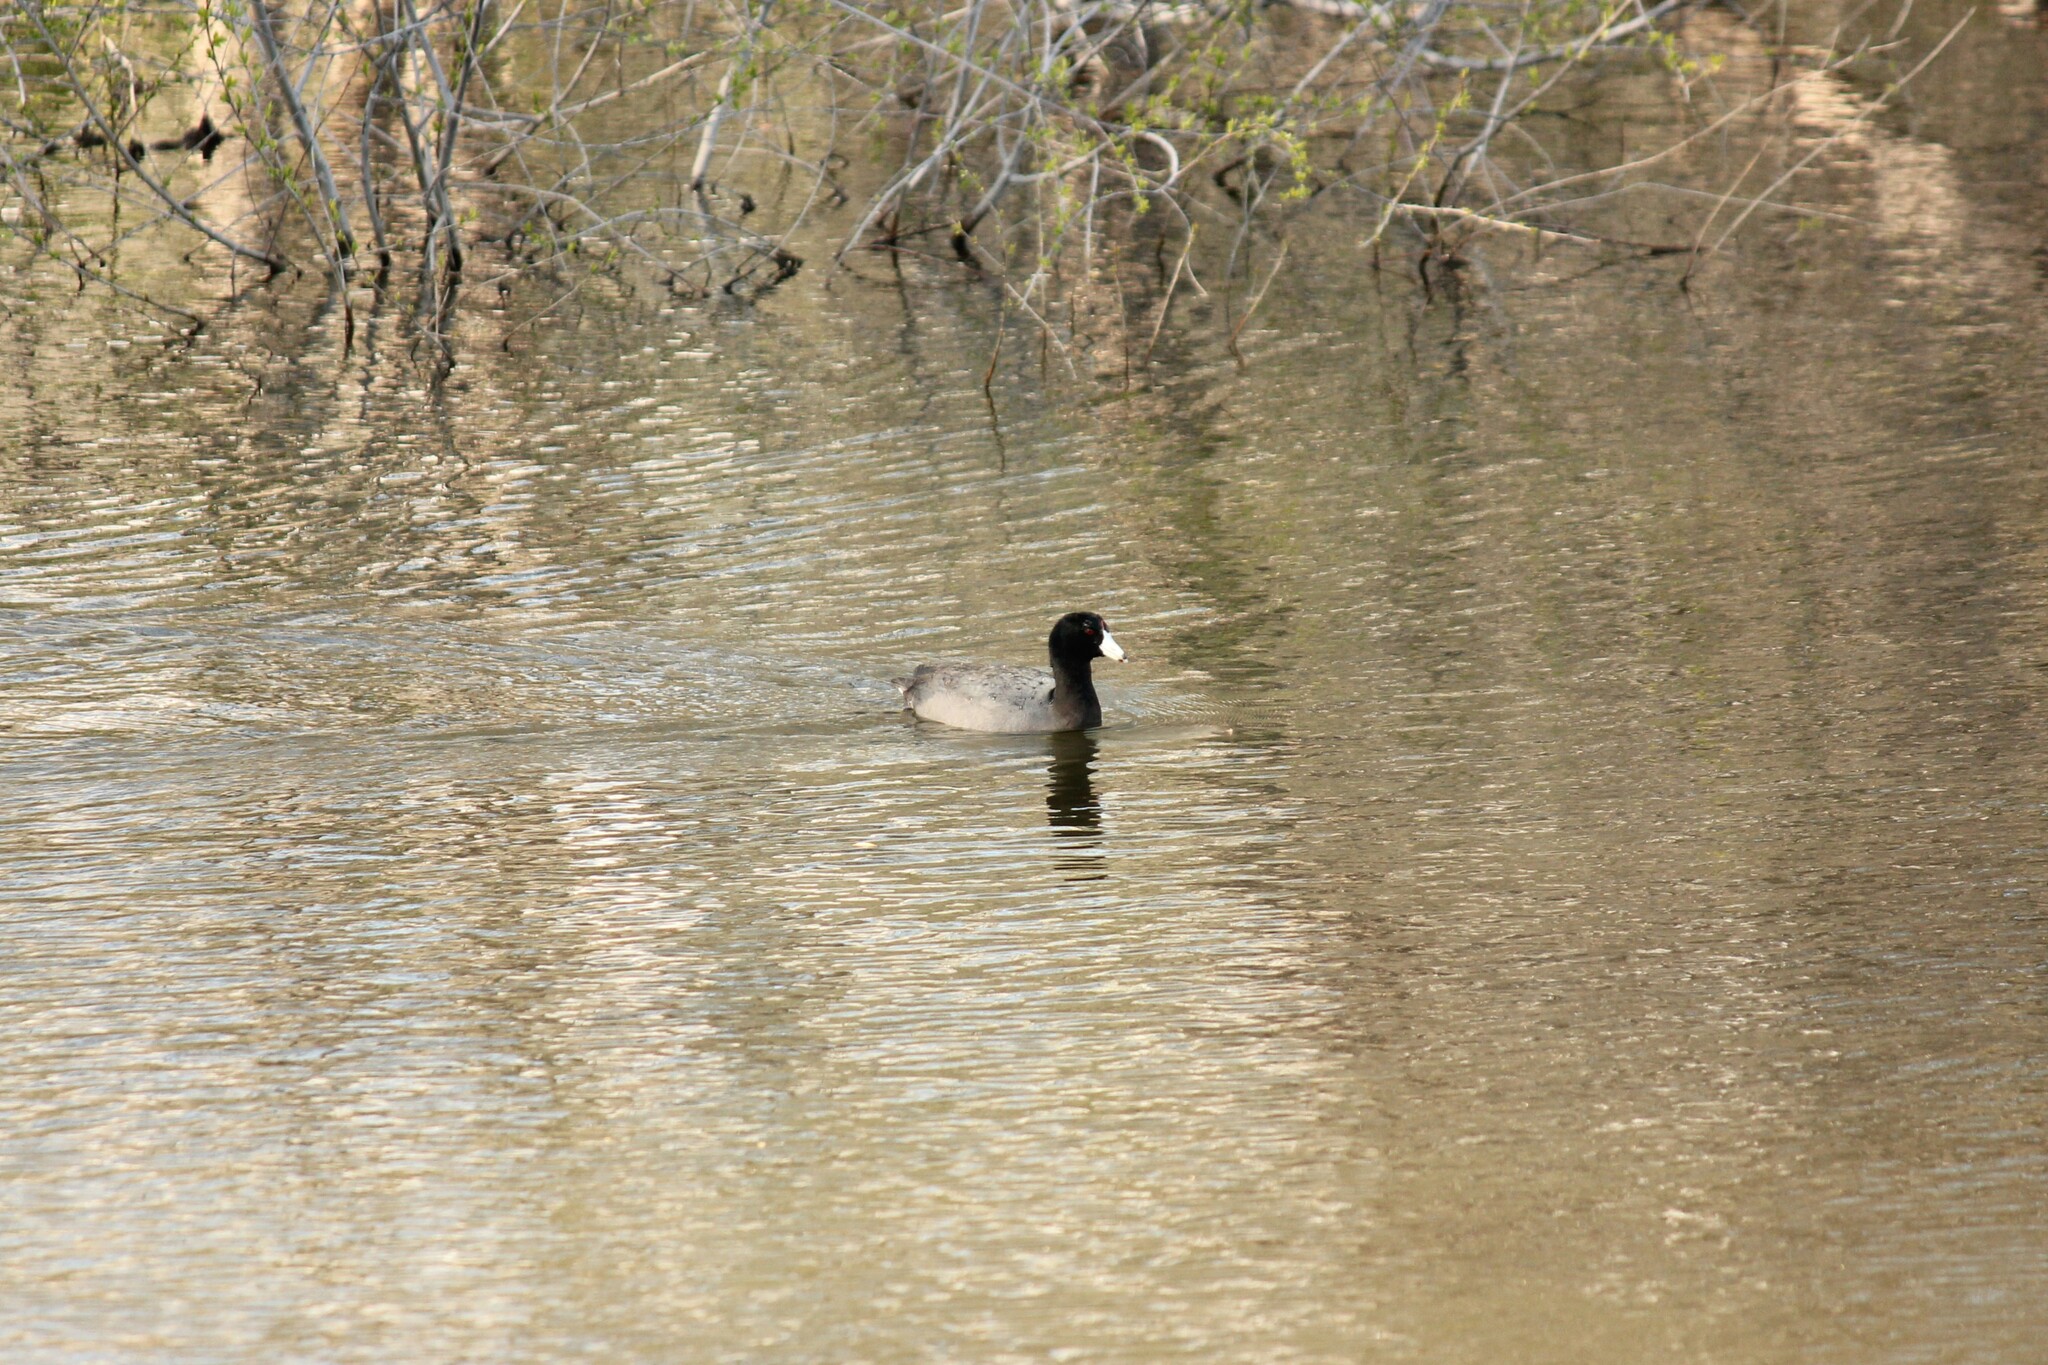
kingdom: Animalia
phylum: Chordata
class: Aves
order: Gruiformes
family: Rallidae
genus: Fulica
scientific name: Fulica americana
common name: American coot
